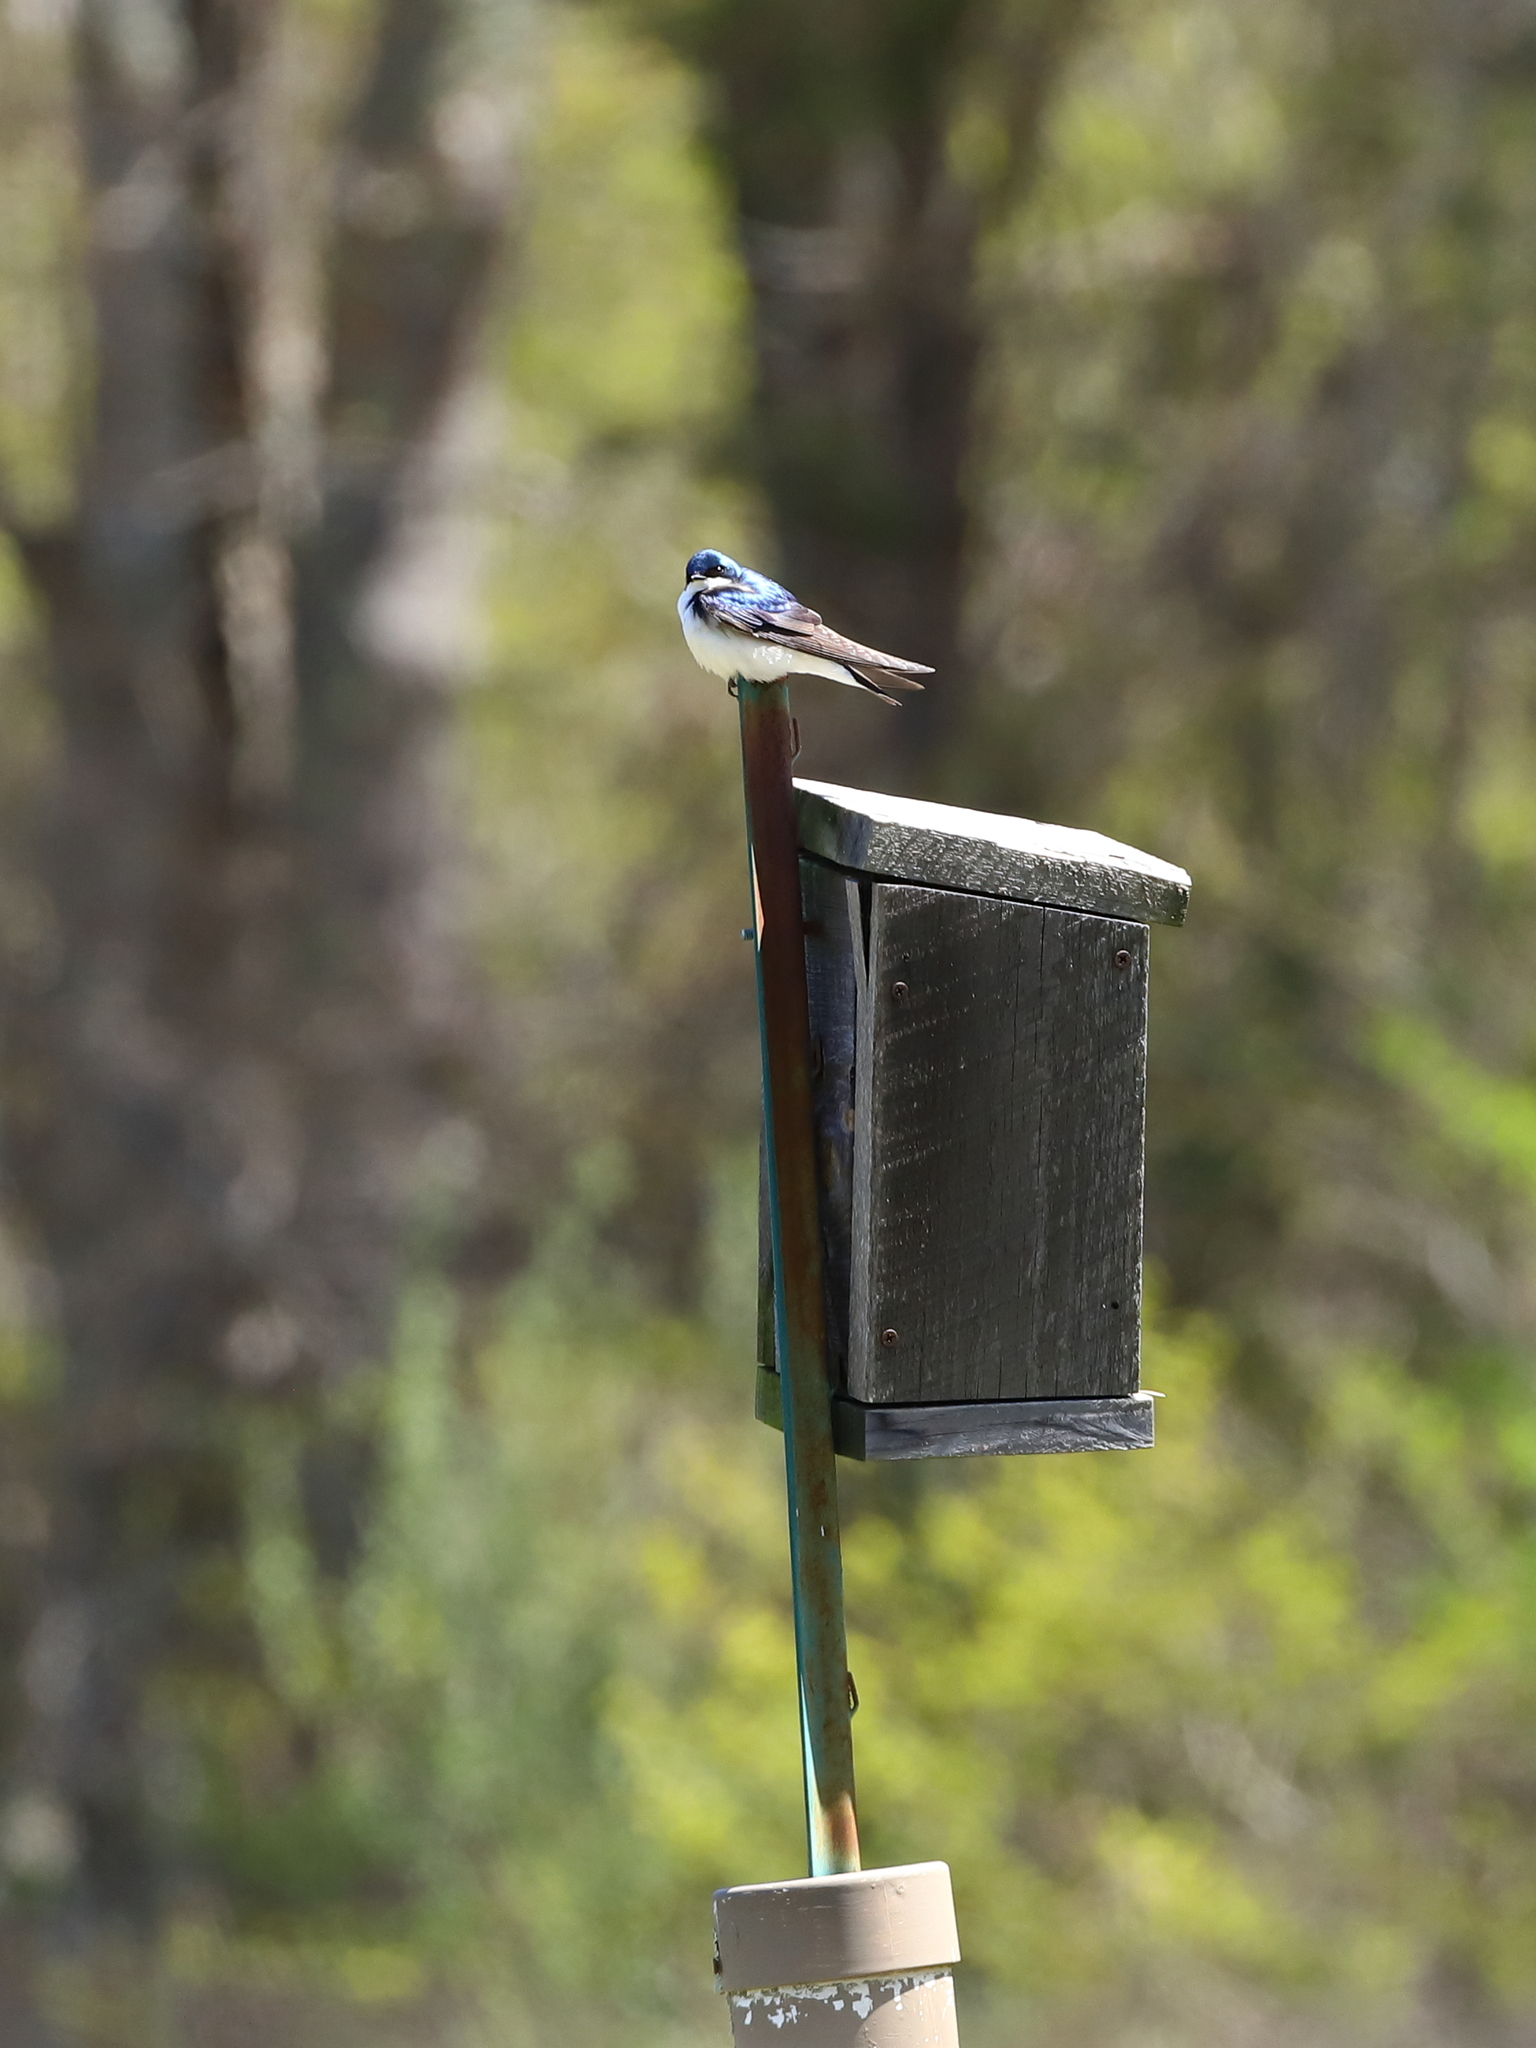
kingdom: Animalia
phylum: Chordata
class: Aves
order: Passeriformes
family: Hirundinidae
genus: Tachycineta
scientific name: Tachycineta bicolor
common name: Tree swallow
